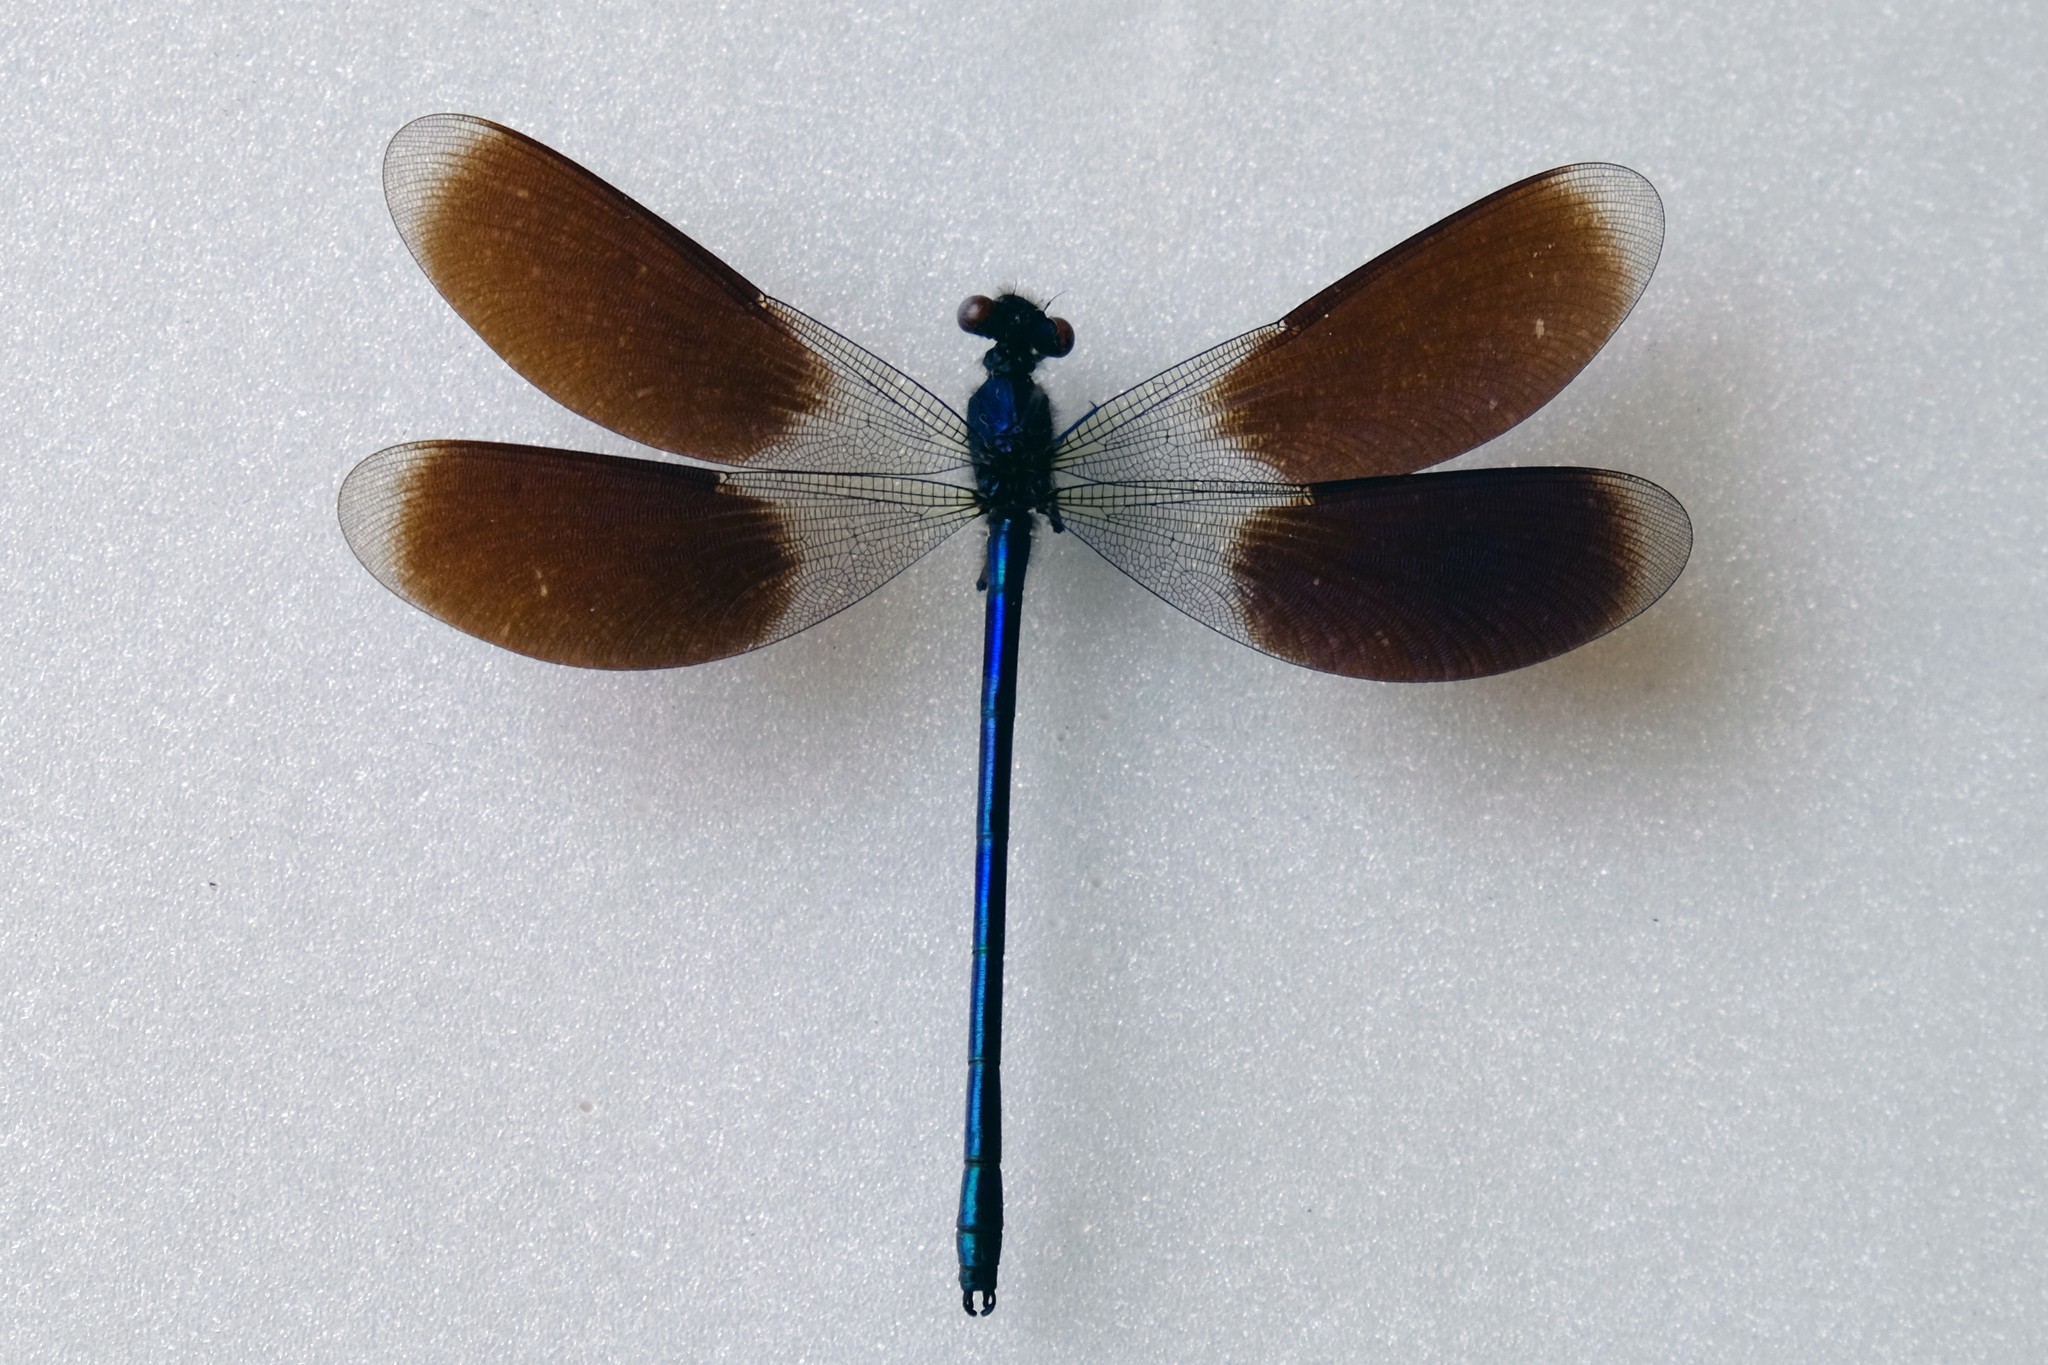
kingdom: Animalia
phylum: Arthropoda
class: Insecta
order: Odonata
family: Calopterygidae
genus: Calopteryx
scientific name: Calopteryx splendens
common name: Banded demoiselle
